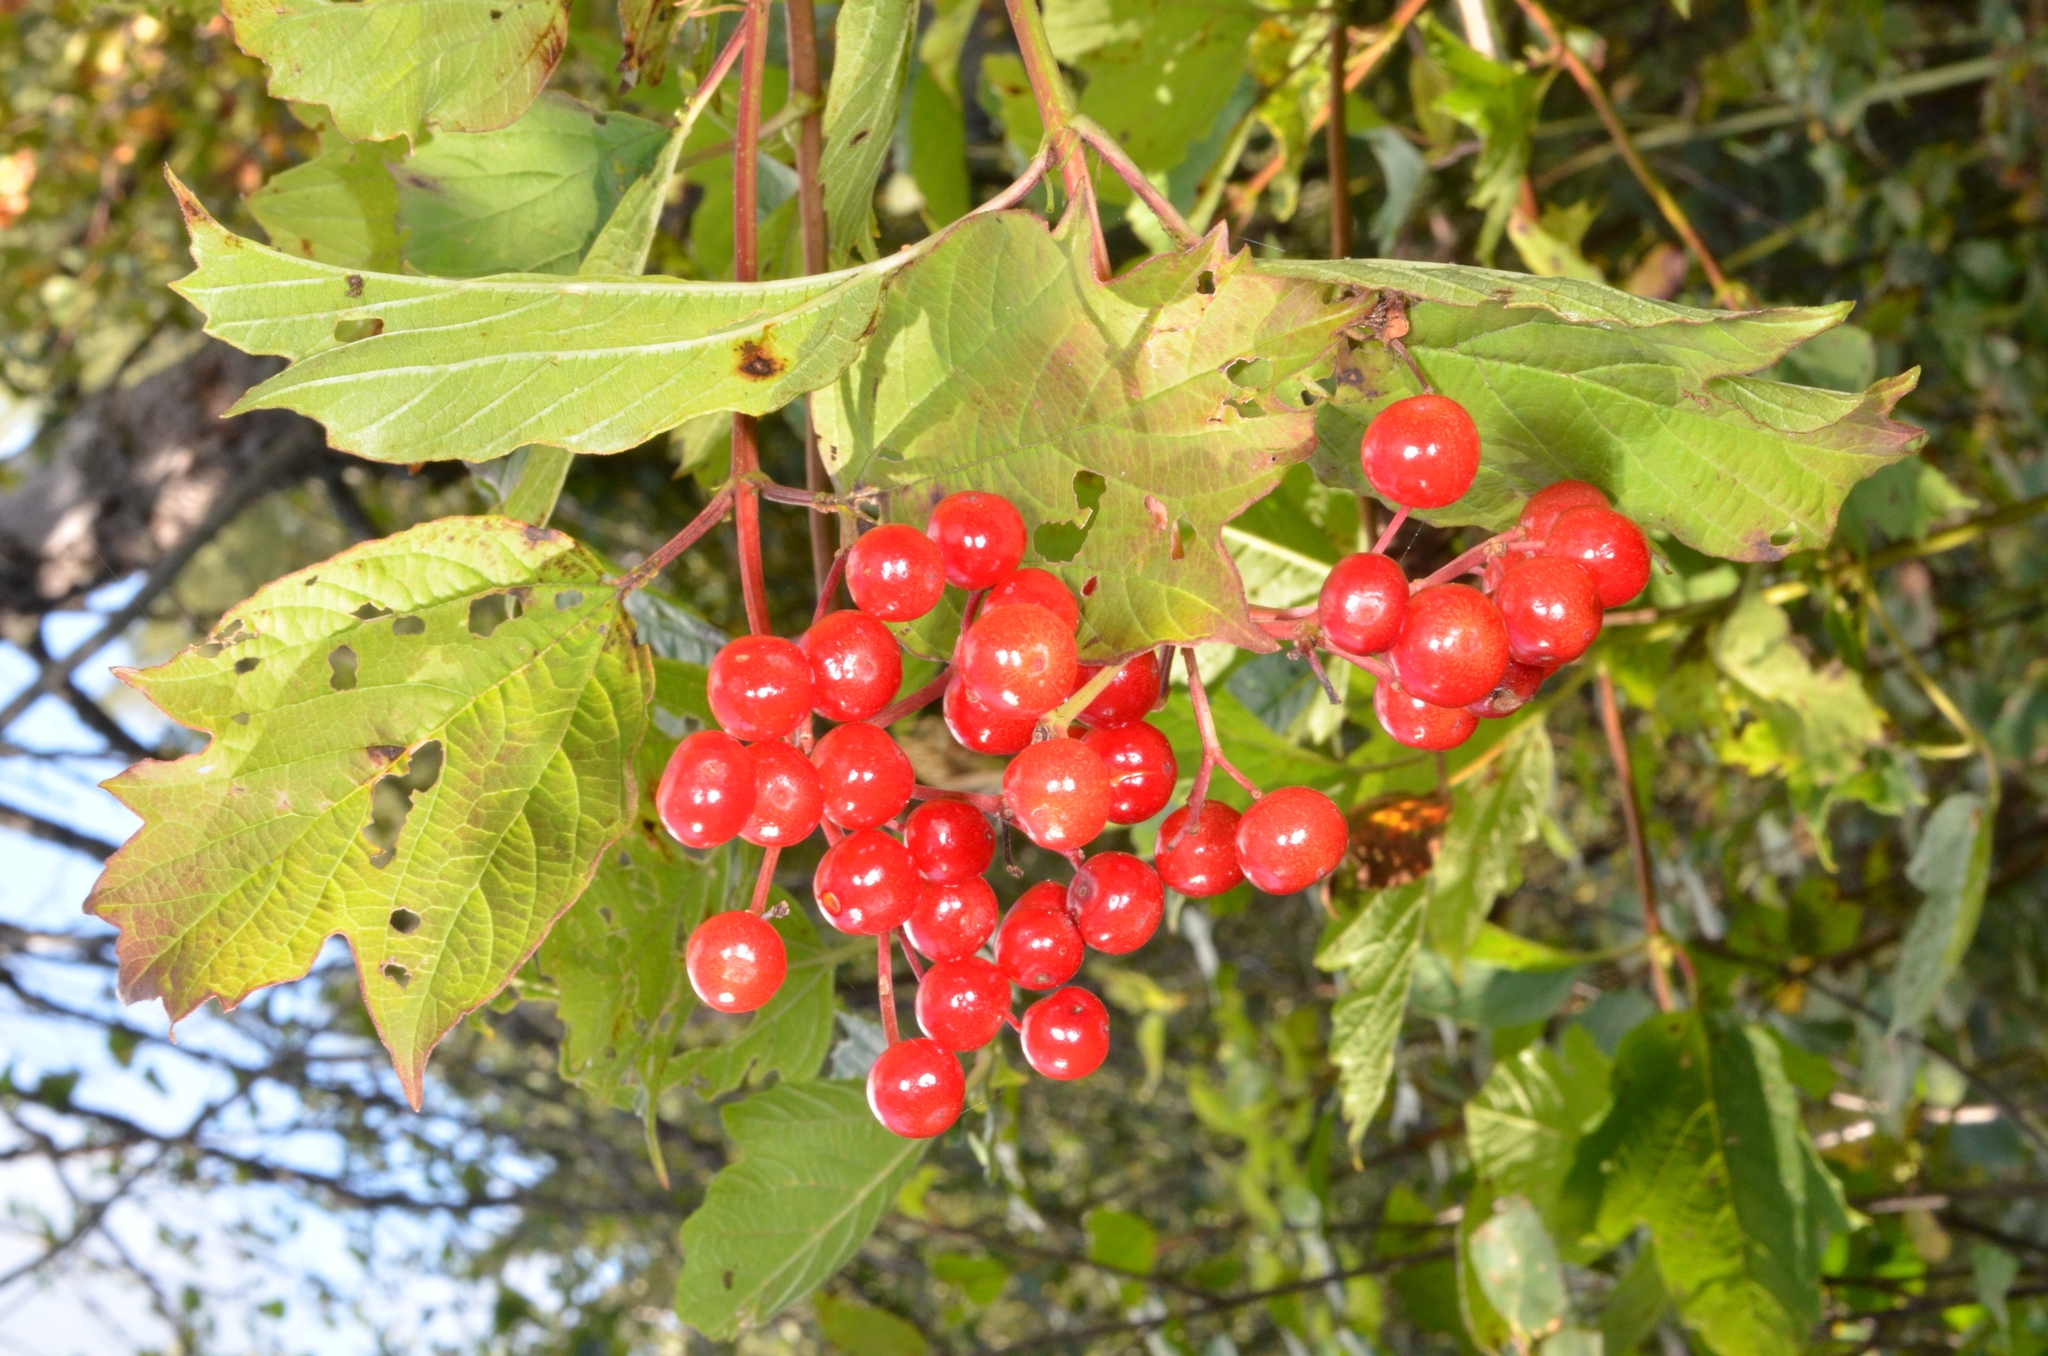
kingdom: Plantae
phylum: Tracheophyta
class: Magnoliopsida
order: Dipsacales
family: Viburnaceae
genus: Viburnum
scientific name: Viburnum opulus
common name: Guelder-rose
